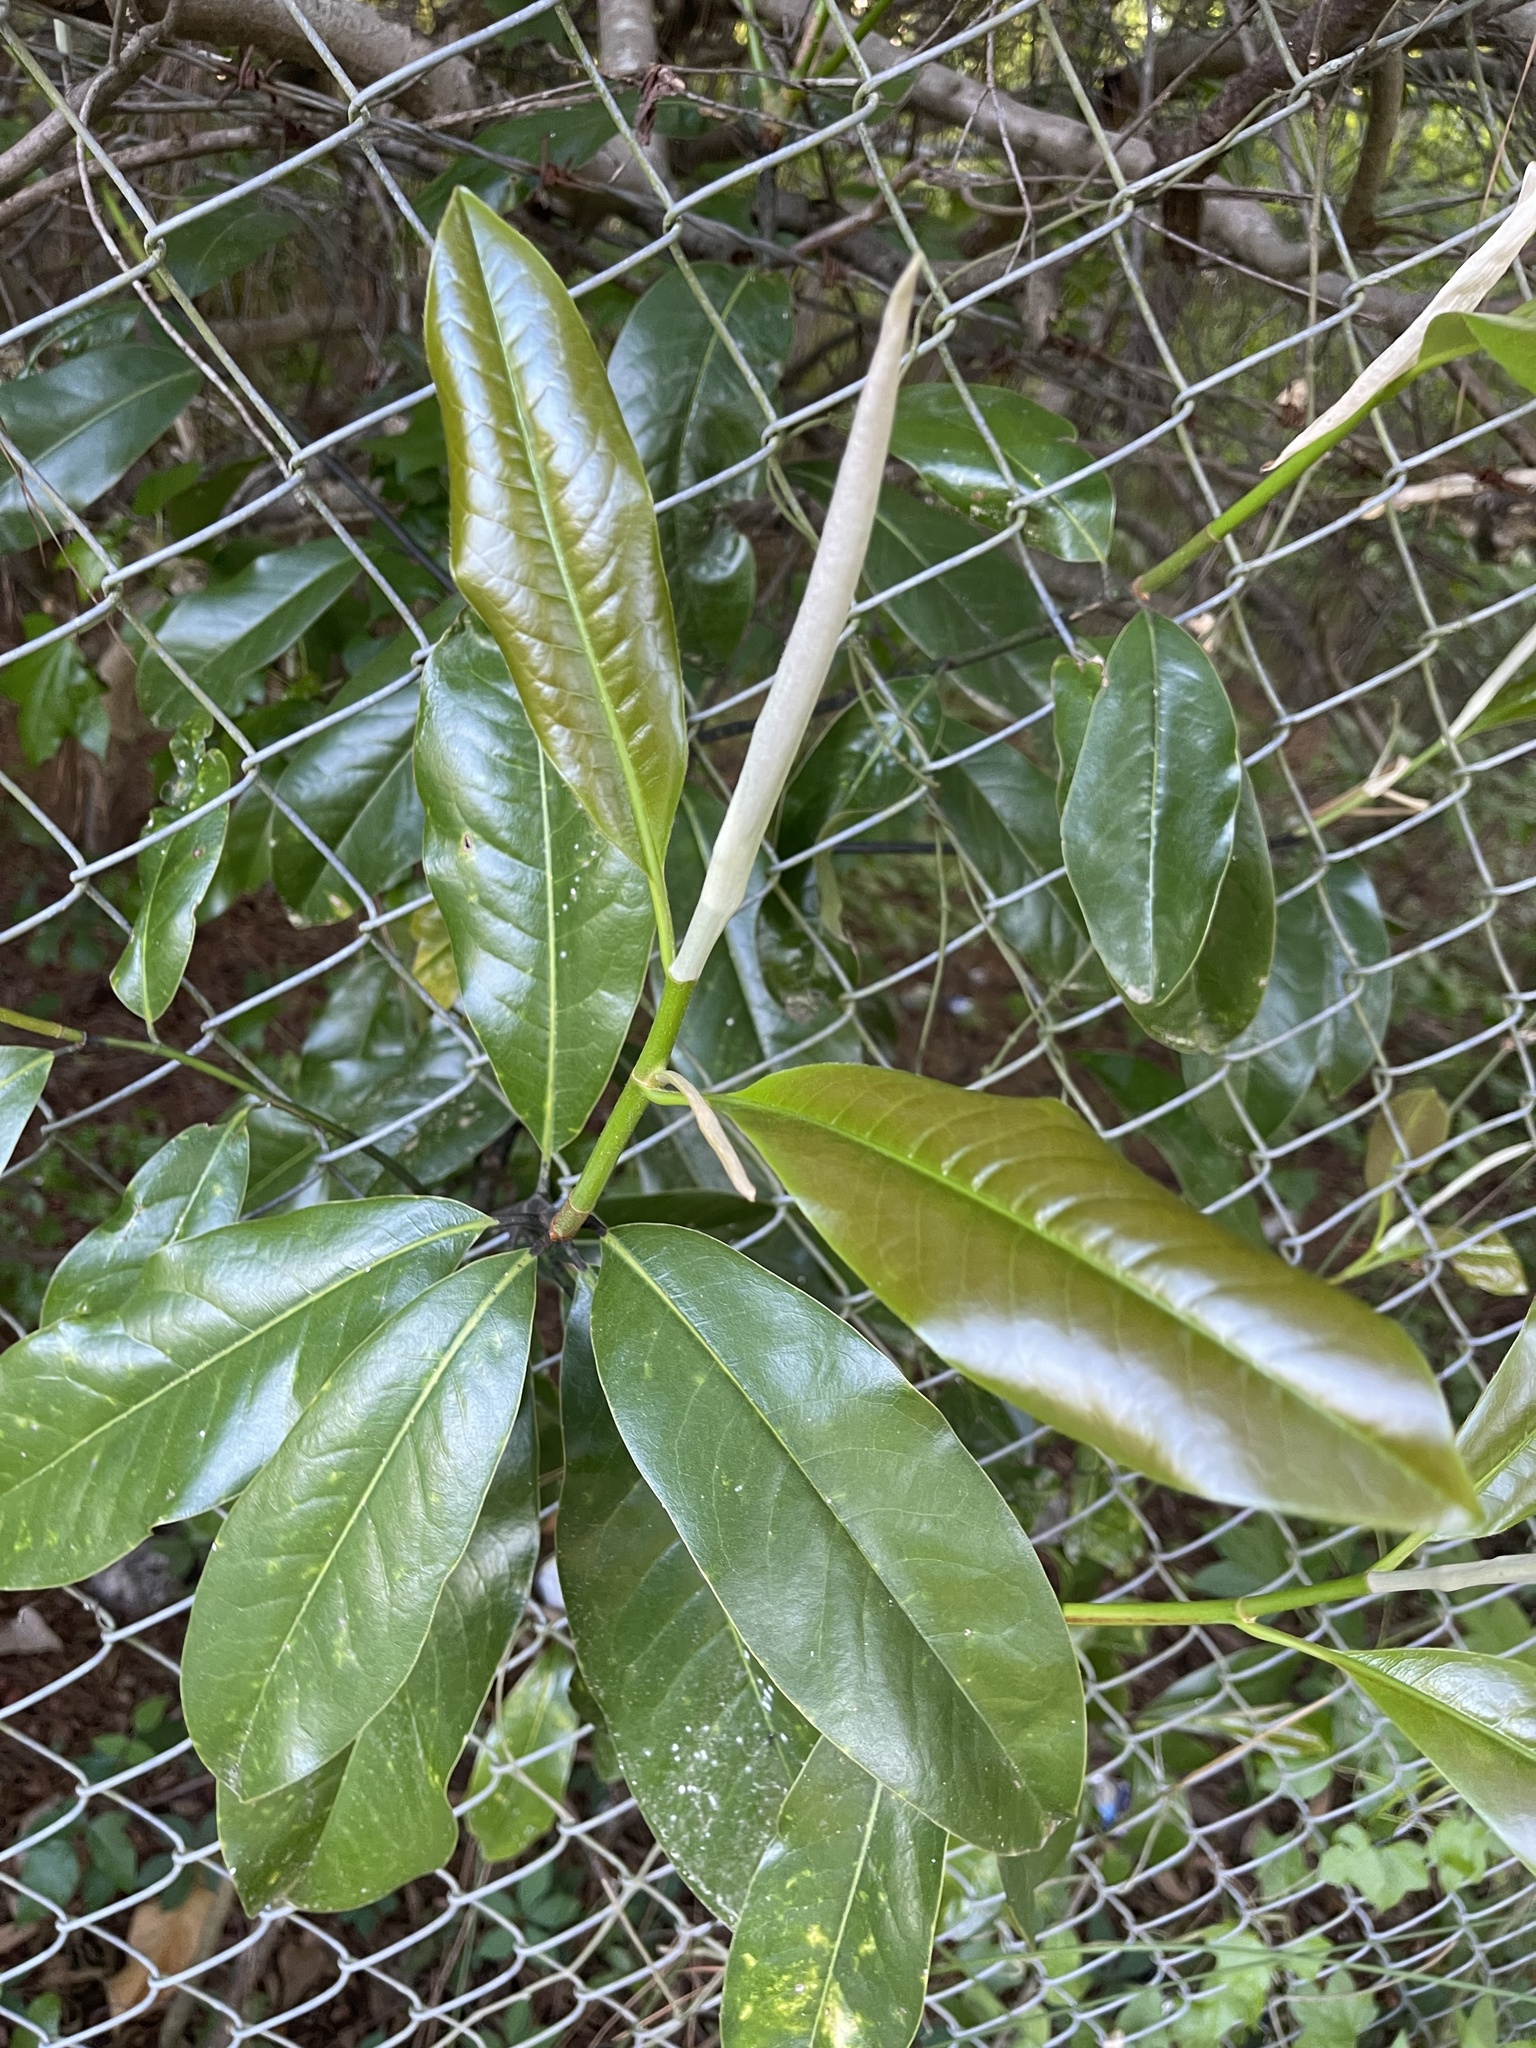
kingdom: Plantae
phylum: Tracheophyta
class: Magnoliopsida
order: Magnoliales
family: Magnoliaceae
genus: Magnolia
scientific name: Magnolia grandiflora
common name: Southern magnolia
